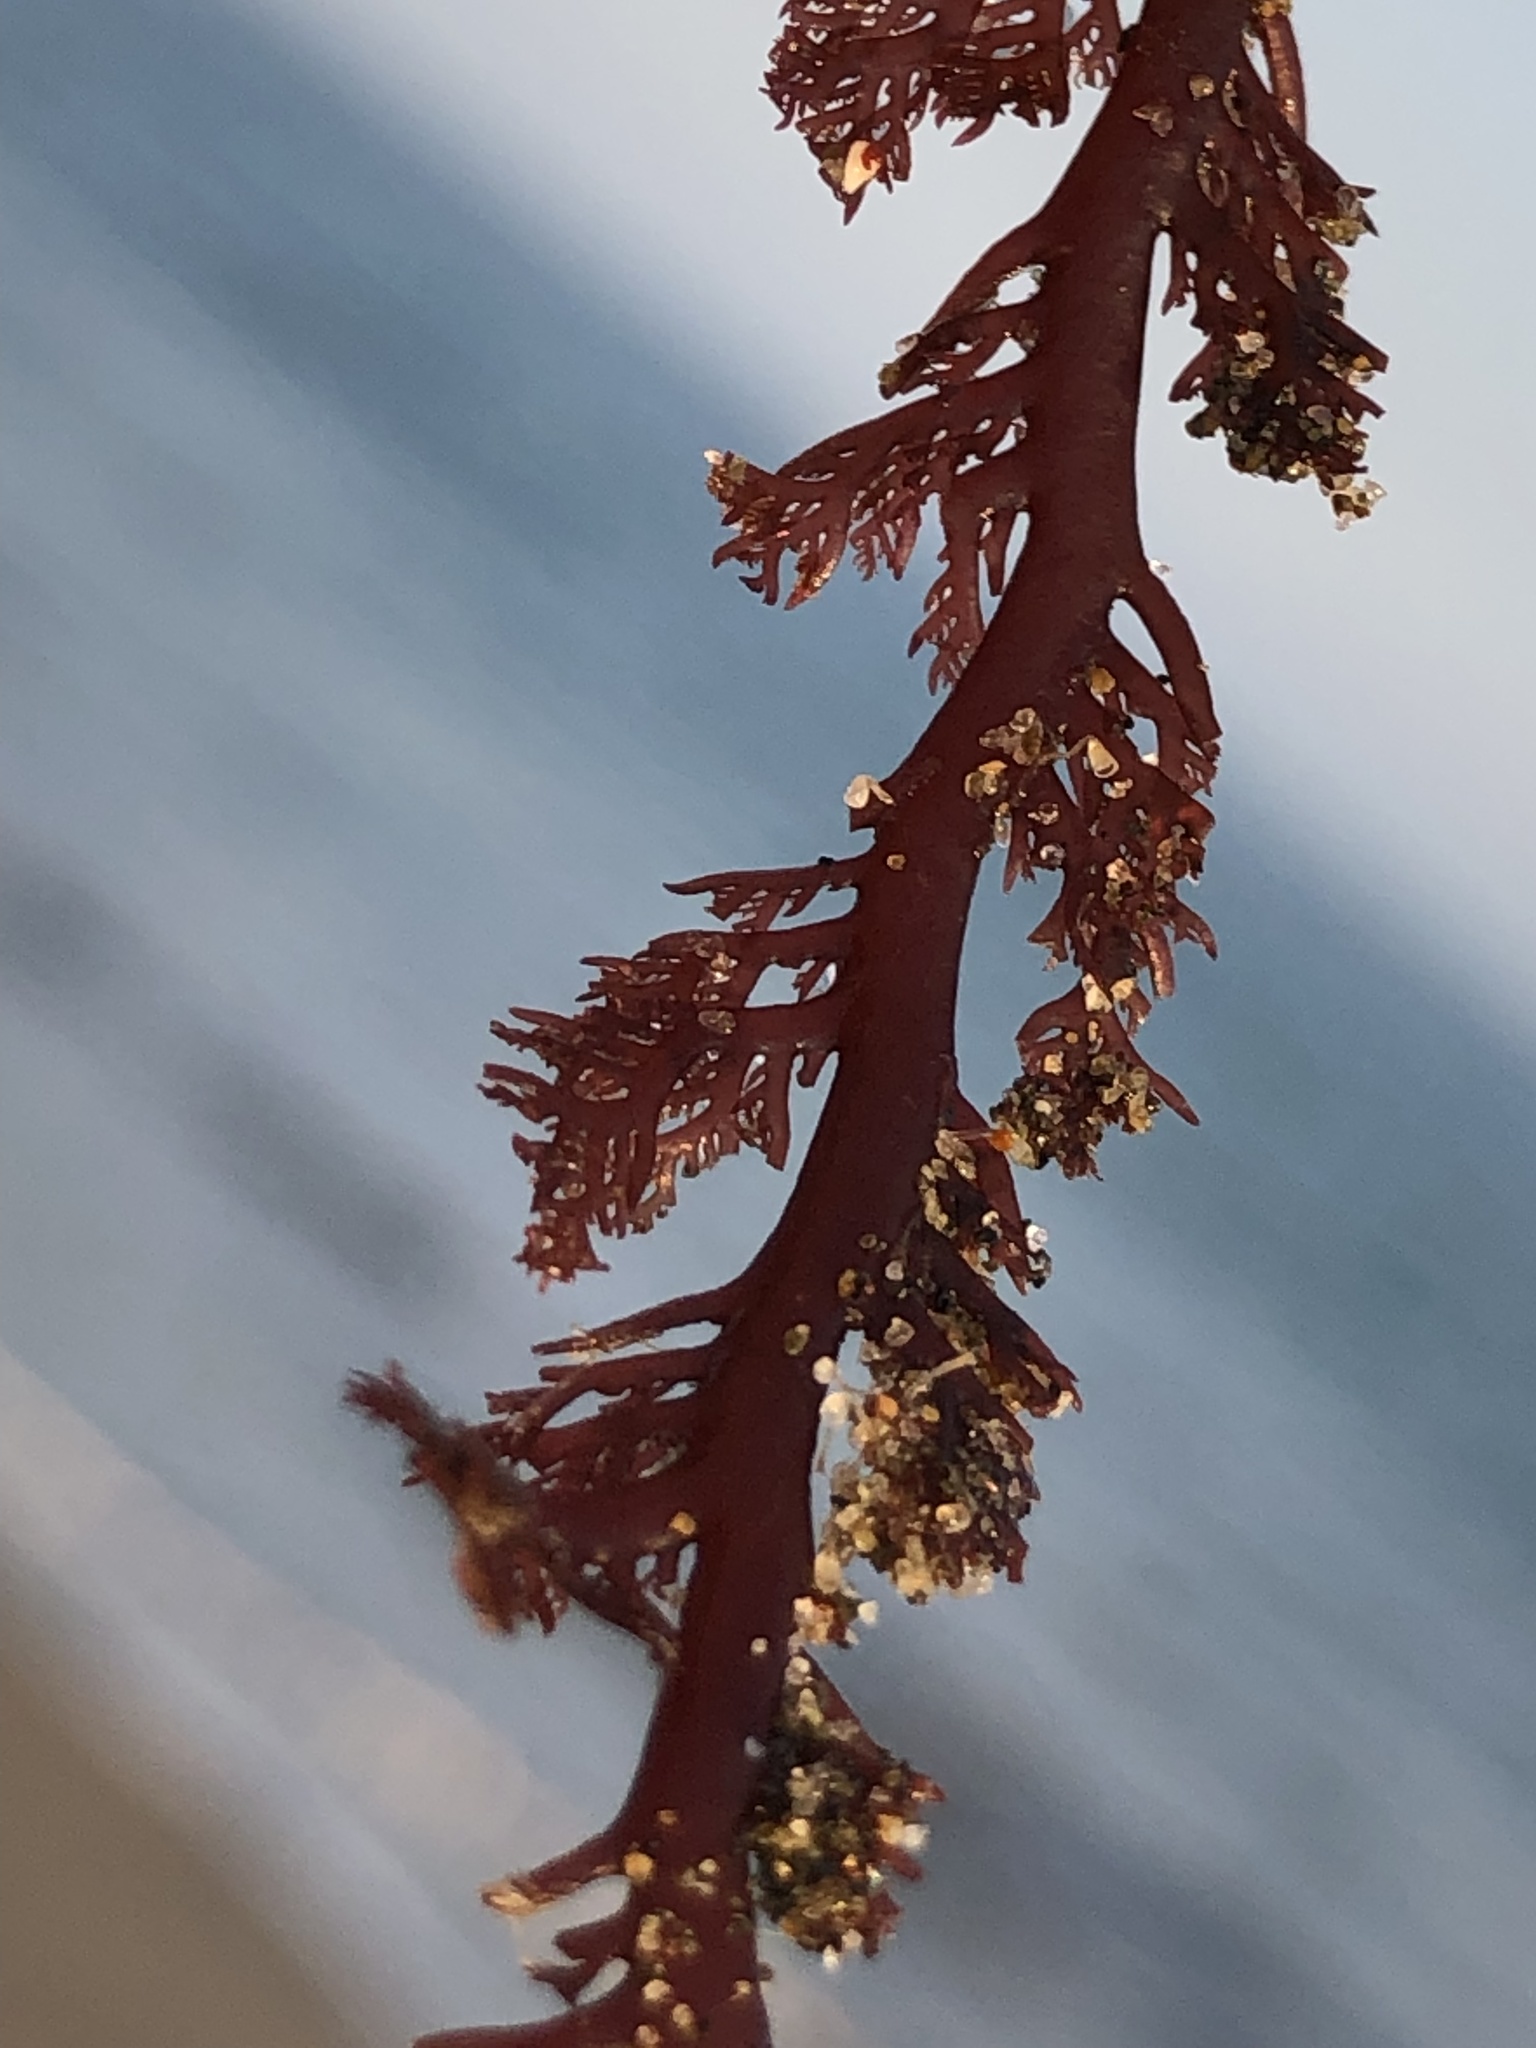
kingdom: Plantae
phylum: Rhodophyta
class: Florideophyceae
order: Plocamiales
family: Plocamiaceae
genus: Plocamium
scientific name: Plocamium cartilagineum
